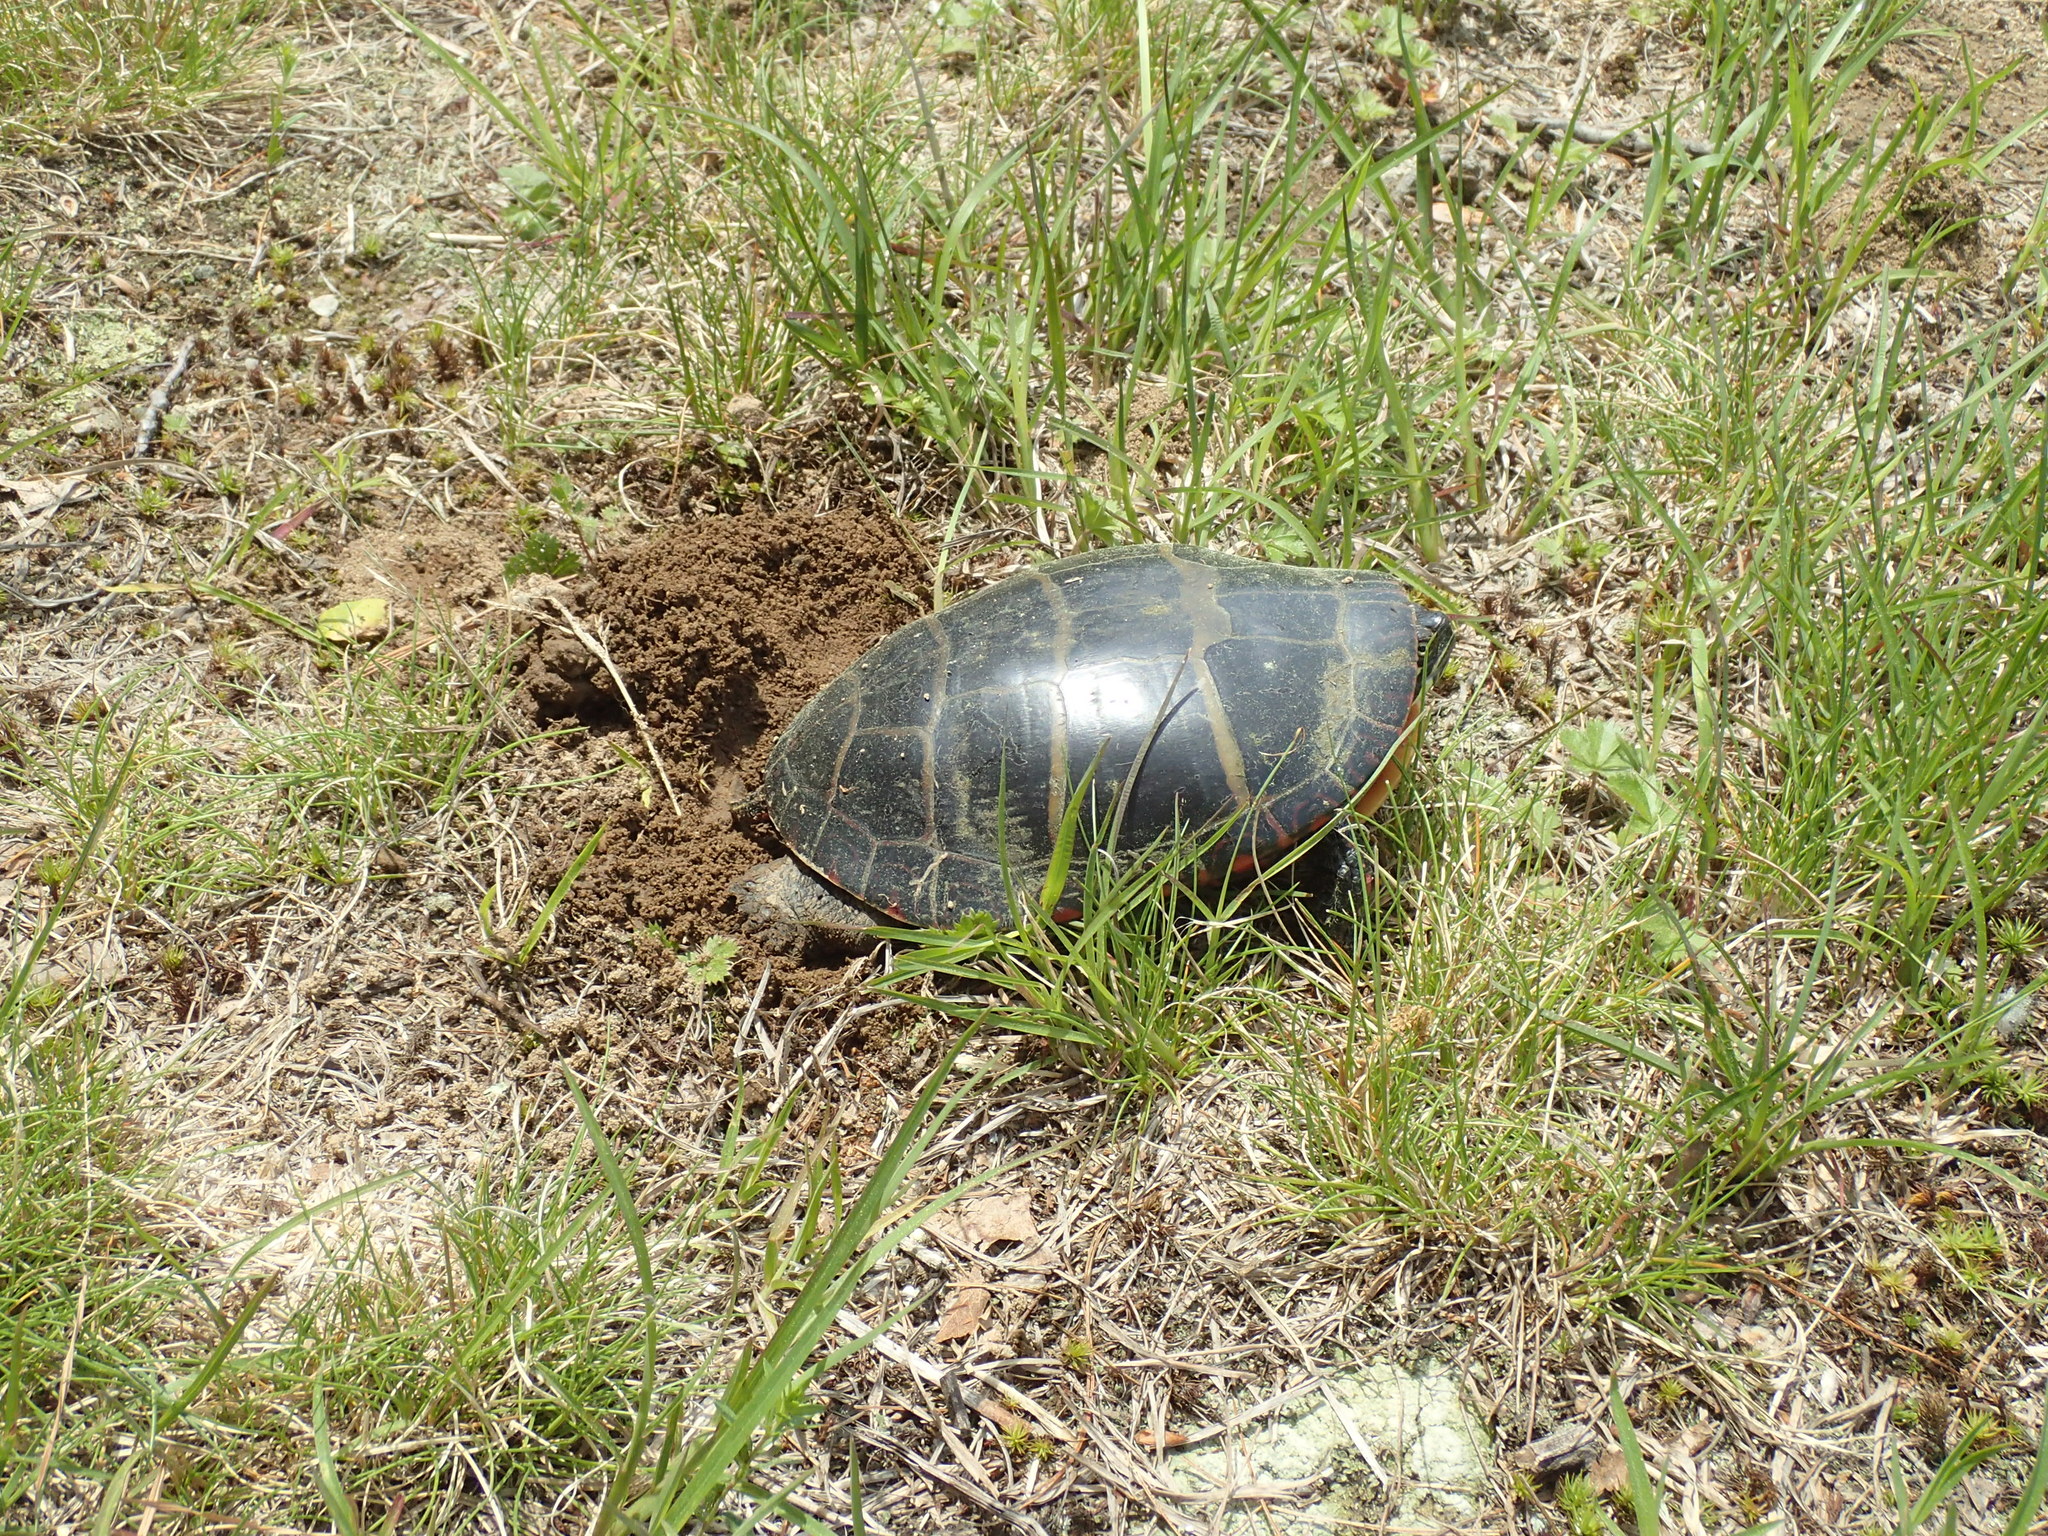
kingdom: Animalia
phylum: Chordata
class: Testudines
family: Emydidae
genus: Chrysemys
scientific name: Chrysemys picta
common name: Painted turtle
